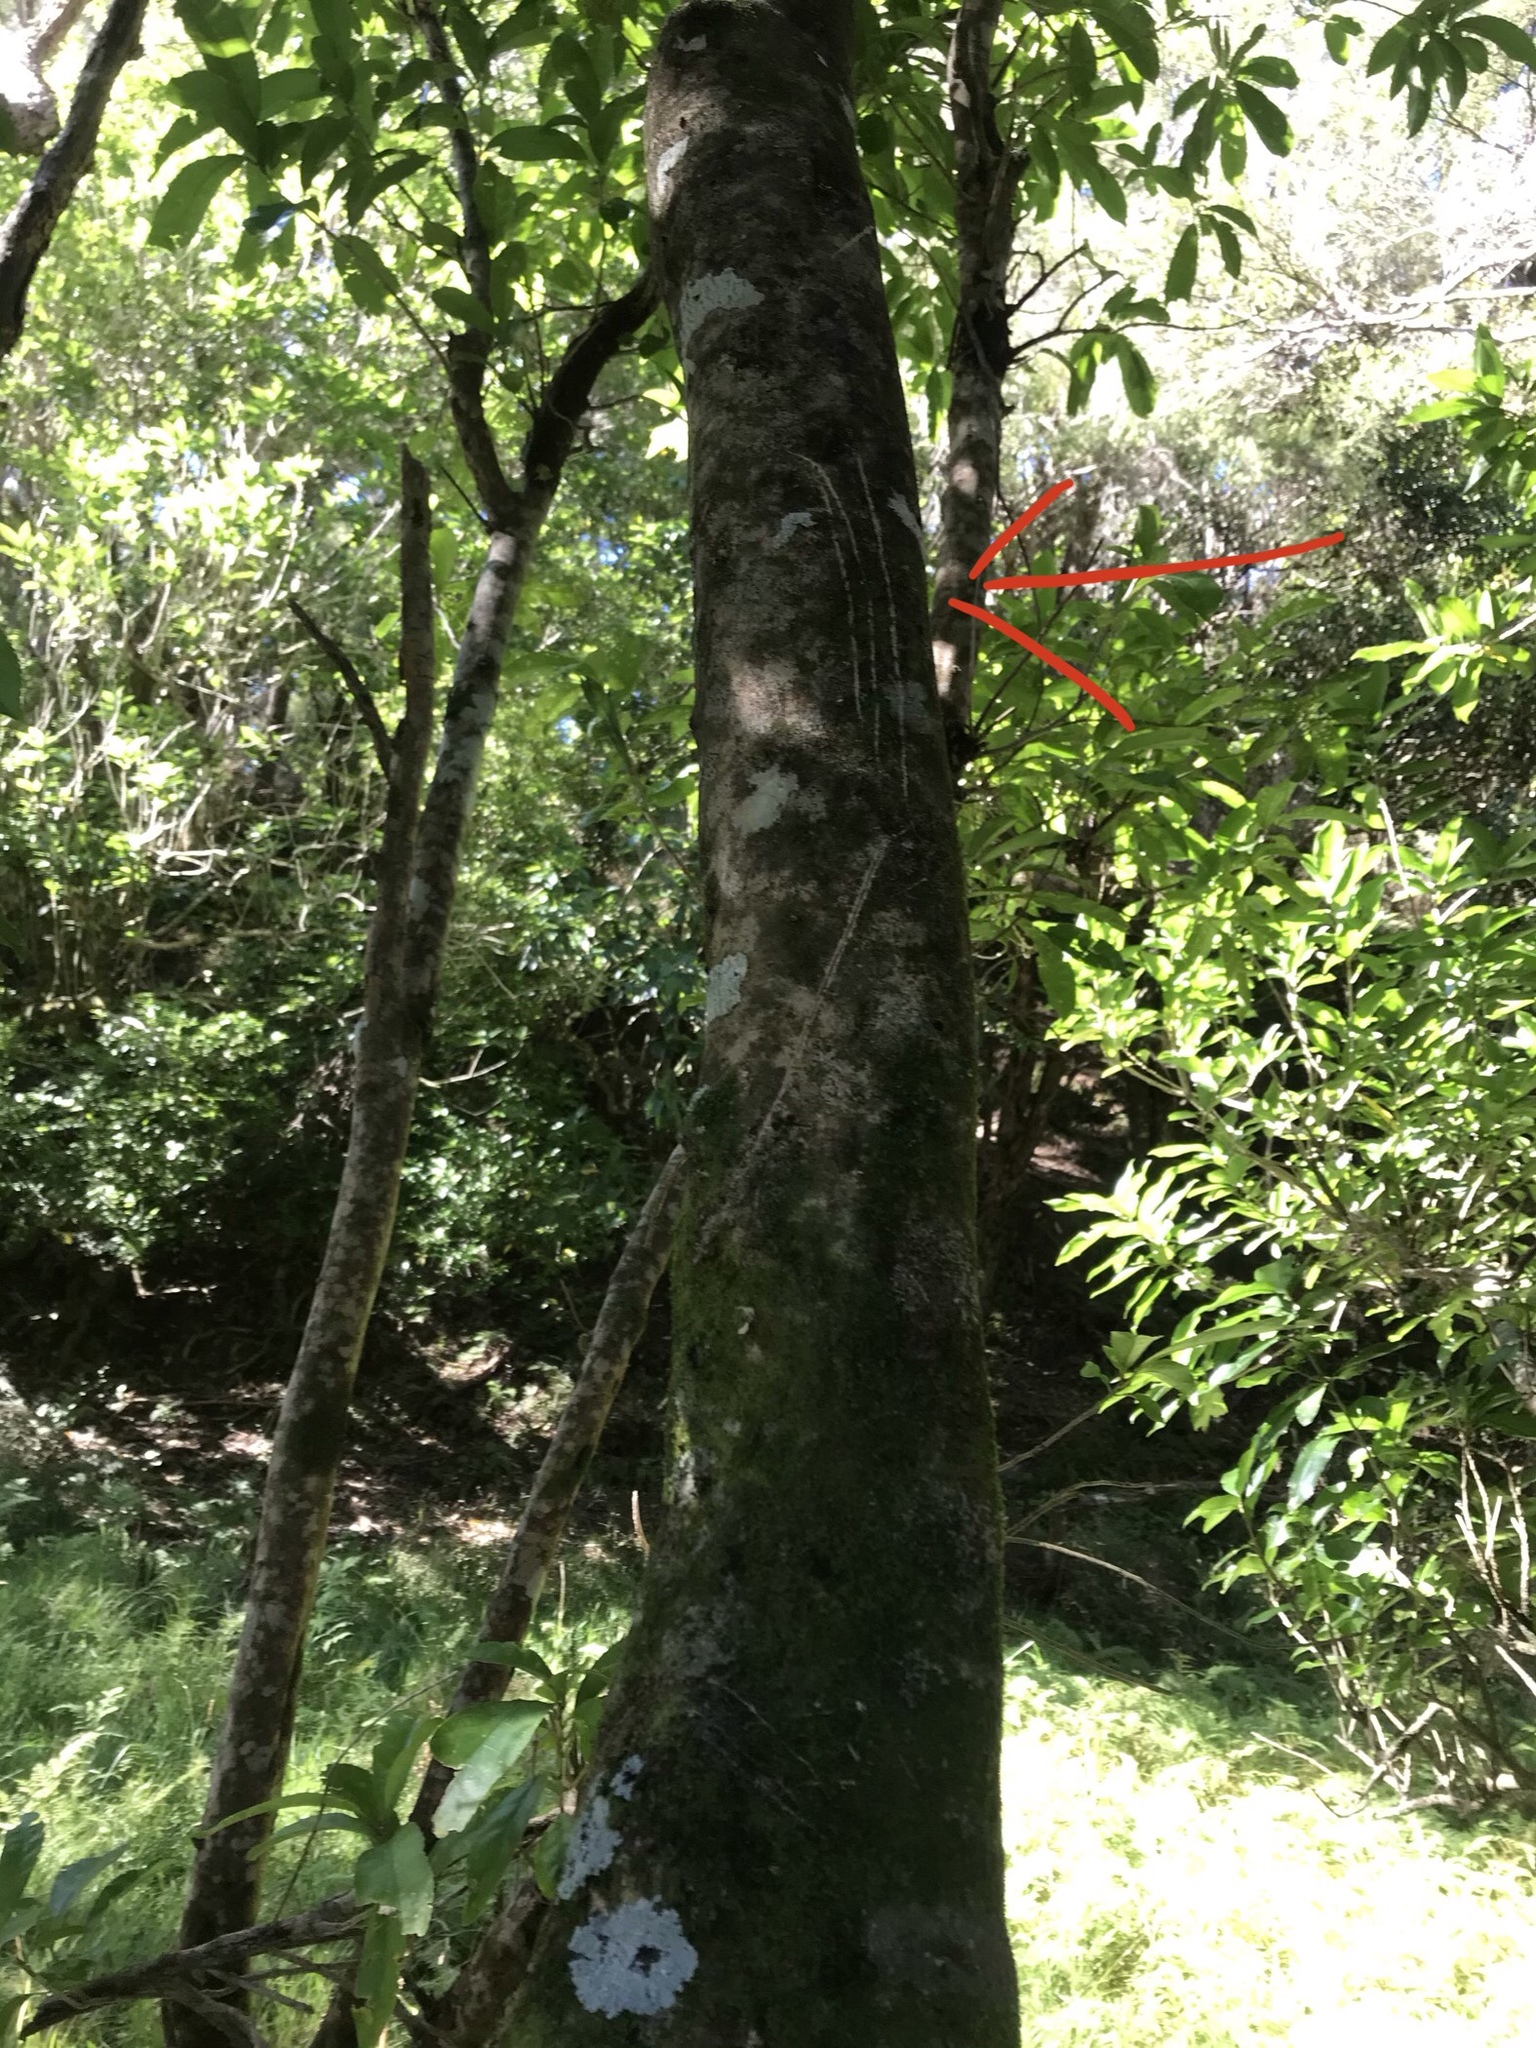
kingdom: Animalia
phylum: Chordata
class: Mammalia
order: Diprotodontia
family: Phalangeridae
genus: Trichosurus
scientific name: Trichosurus vulpecula
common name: Common brushtail
